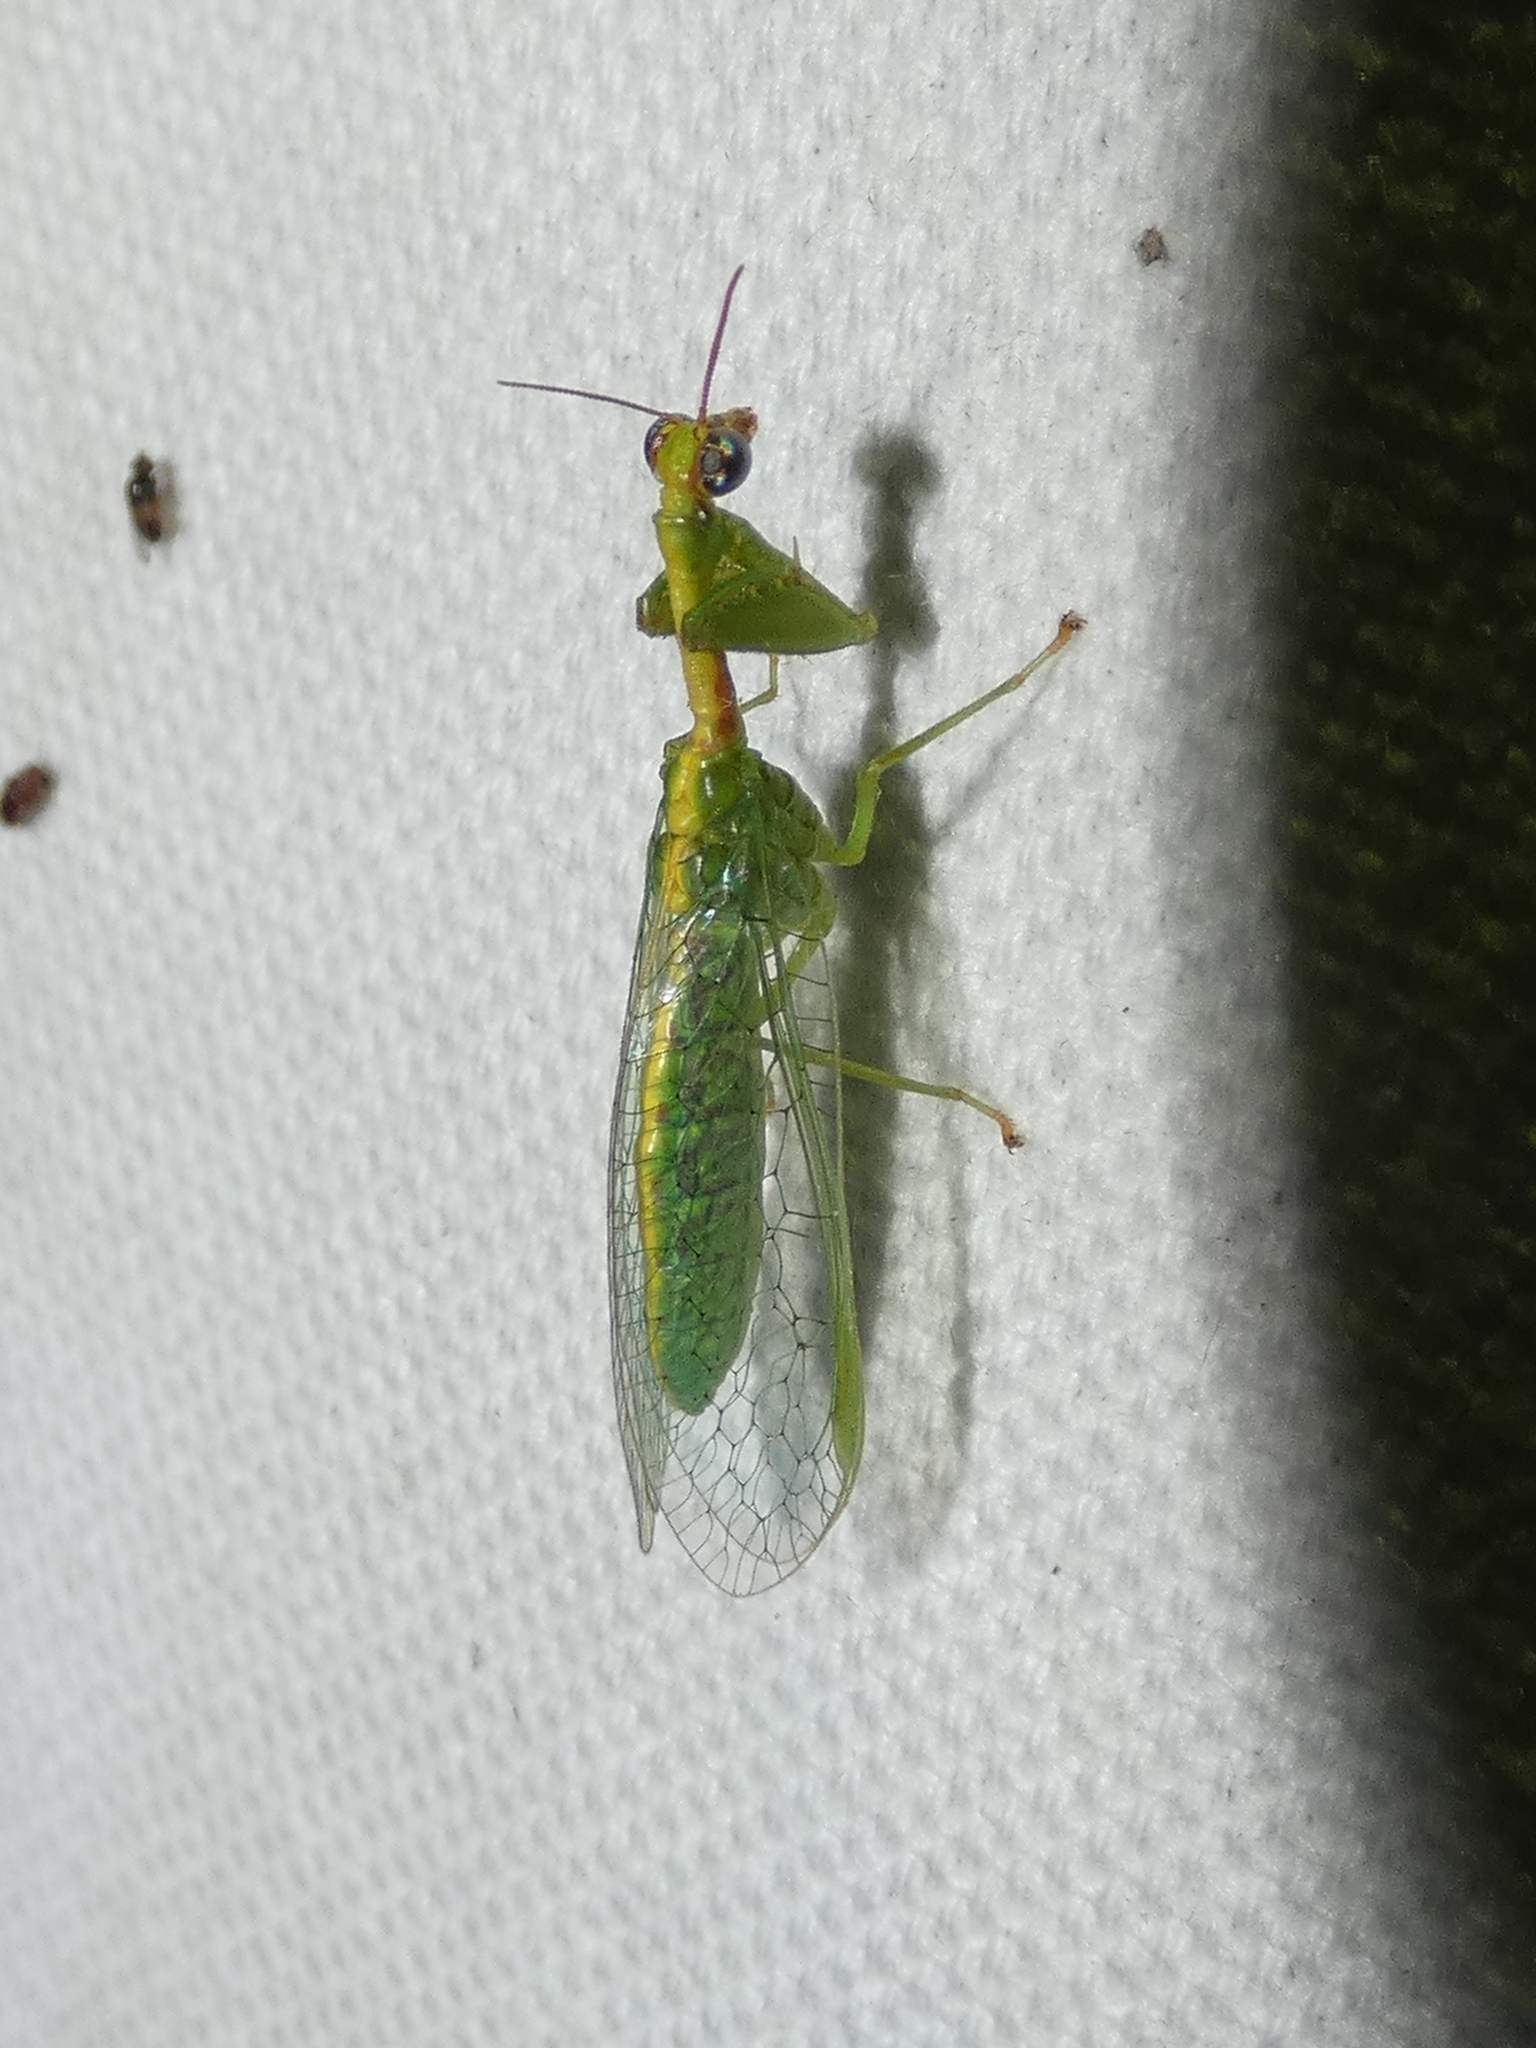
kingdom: Animalia
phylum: Arthropoda
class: Insecta
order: Neuroptera
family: Mantispidae
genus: Zeugomantispa
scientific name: Zeugomantispa minuta
